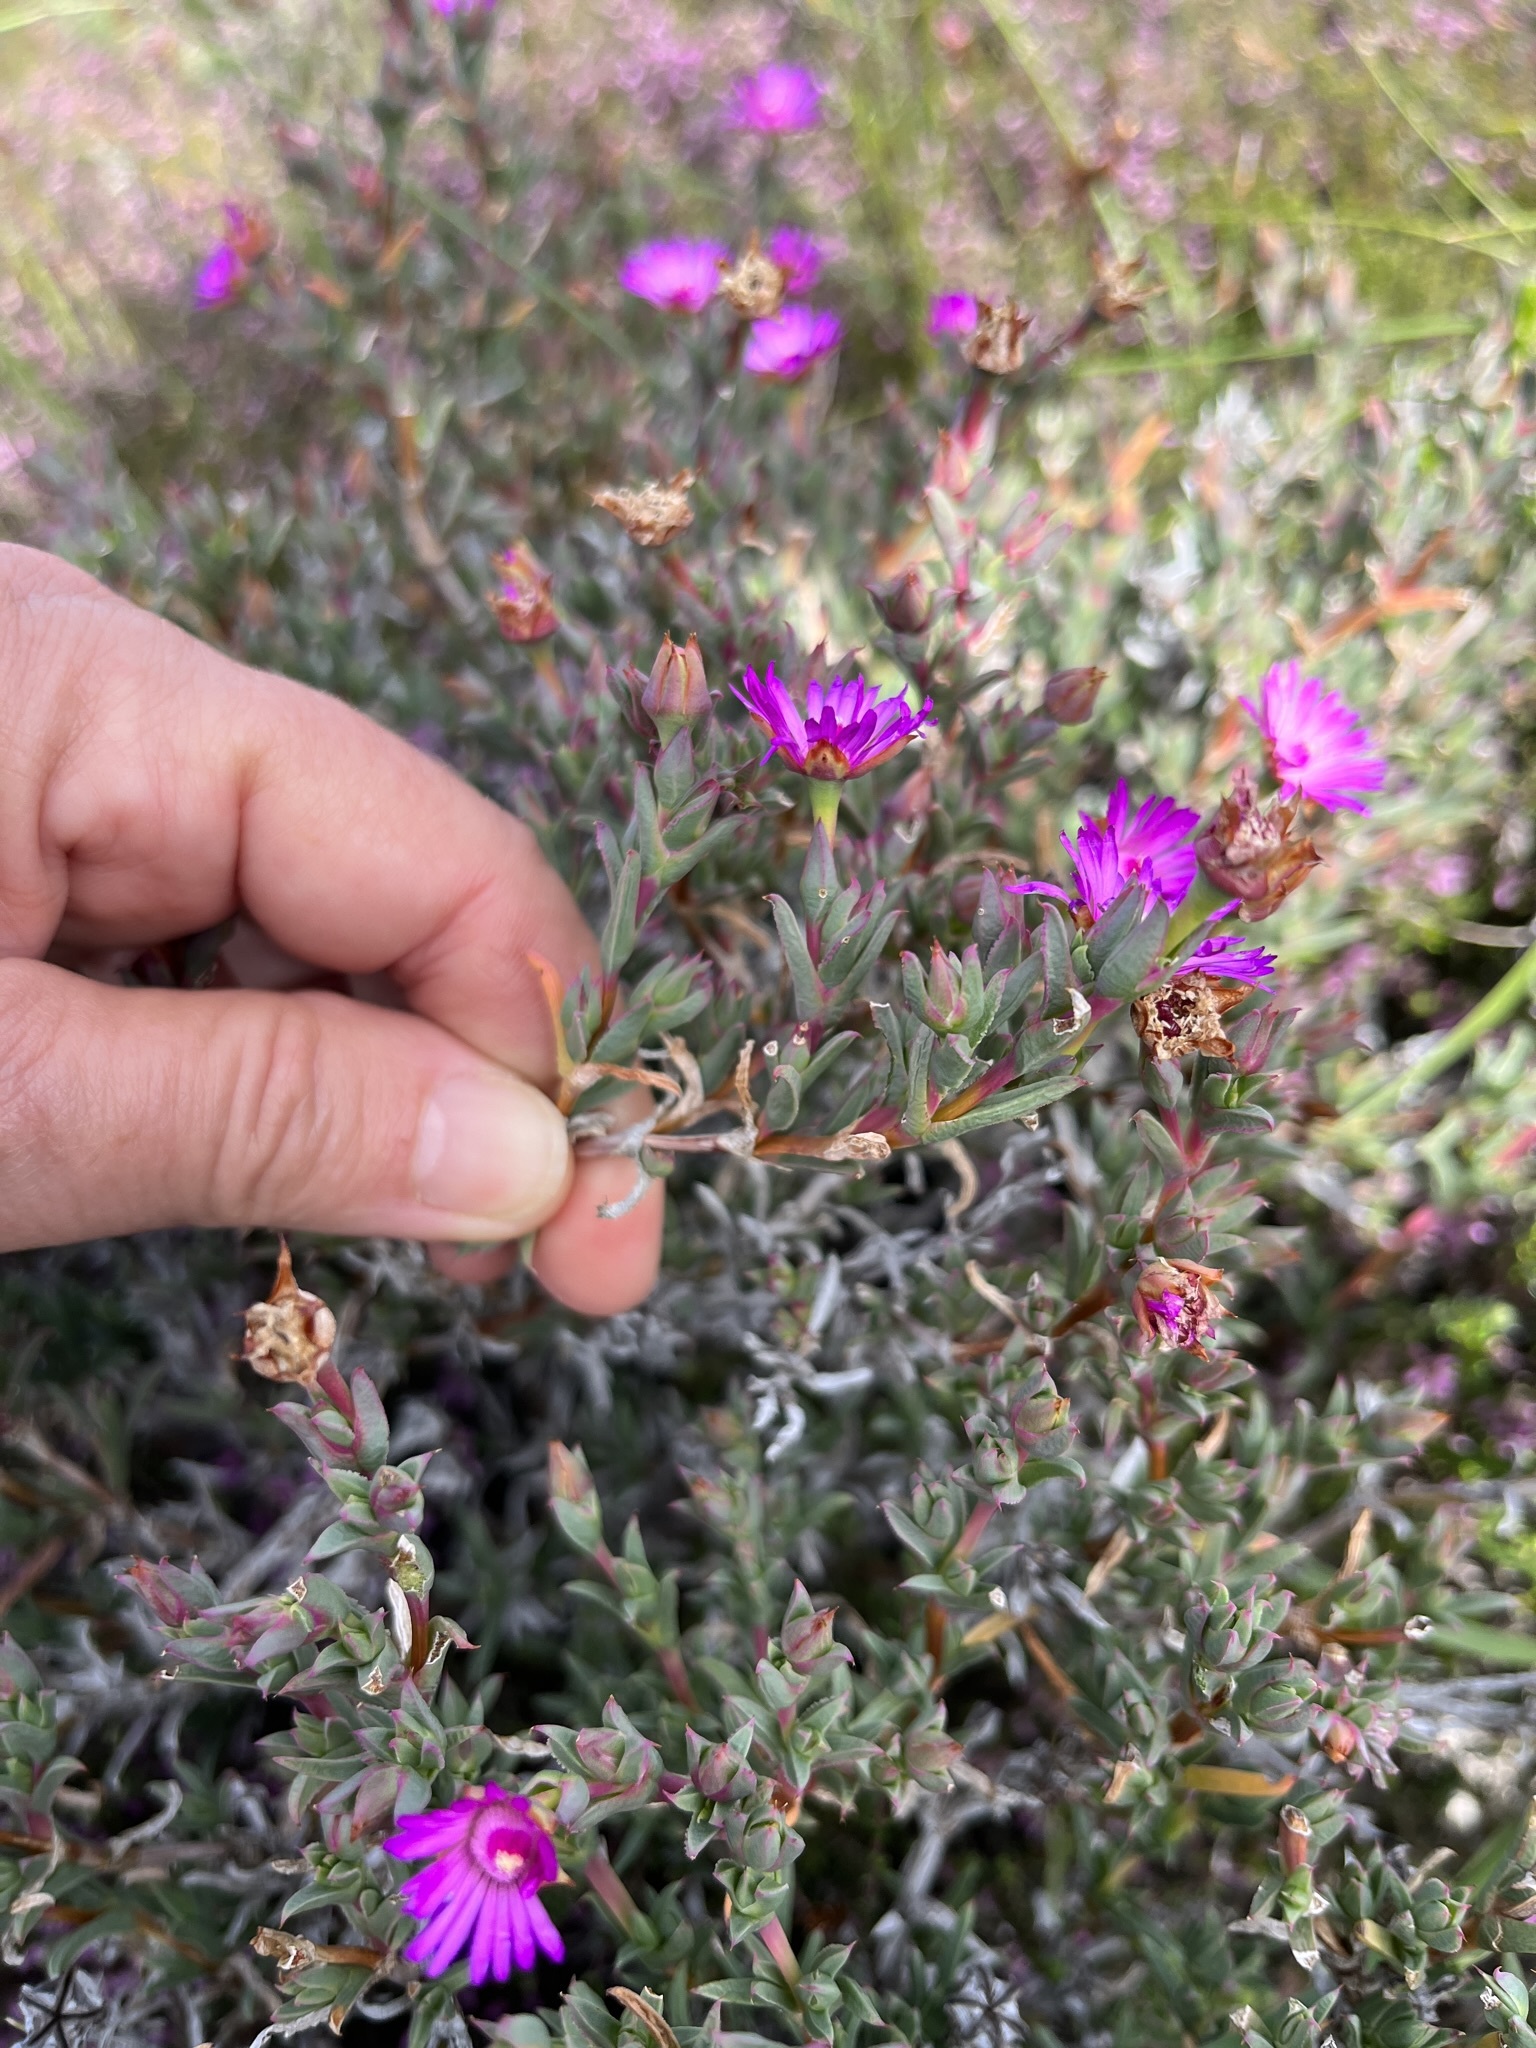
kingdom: Plantae
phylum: Tracheophyta
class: Magnoliopsida
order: Caryophyllales
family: Aizoaceae
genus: Ruschia
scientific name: Ruschia calcicola
